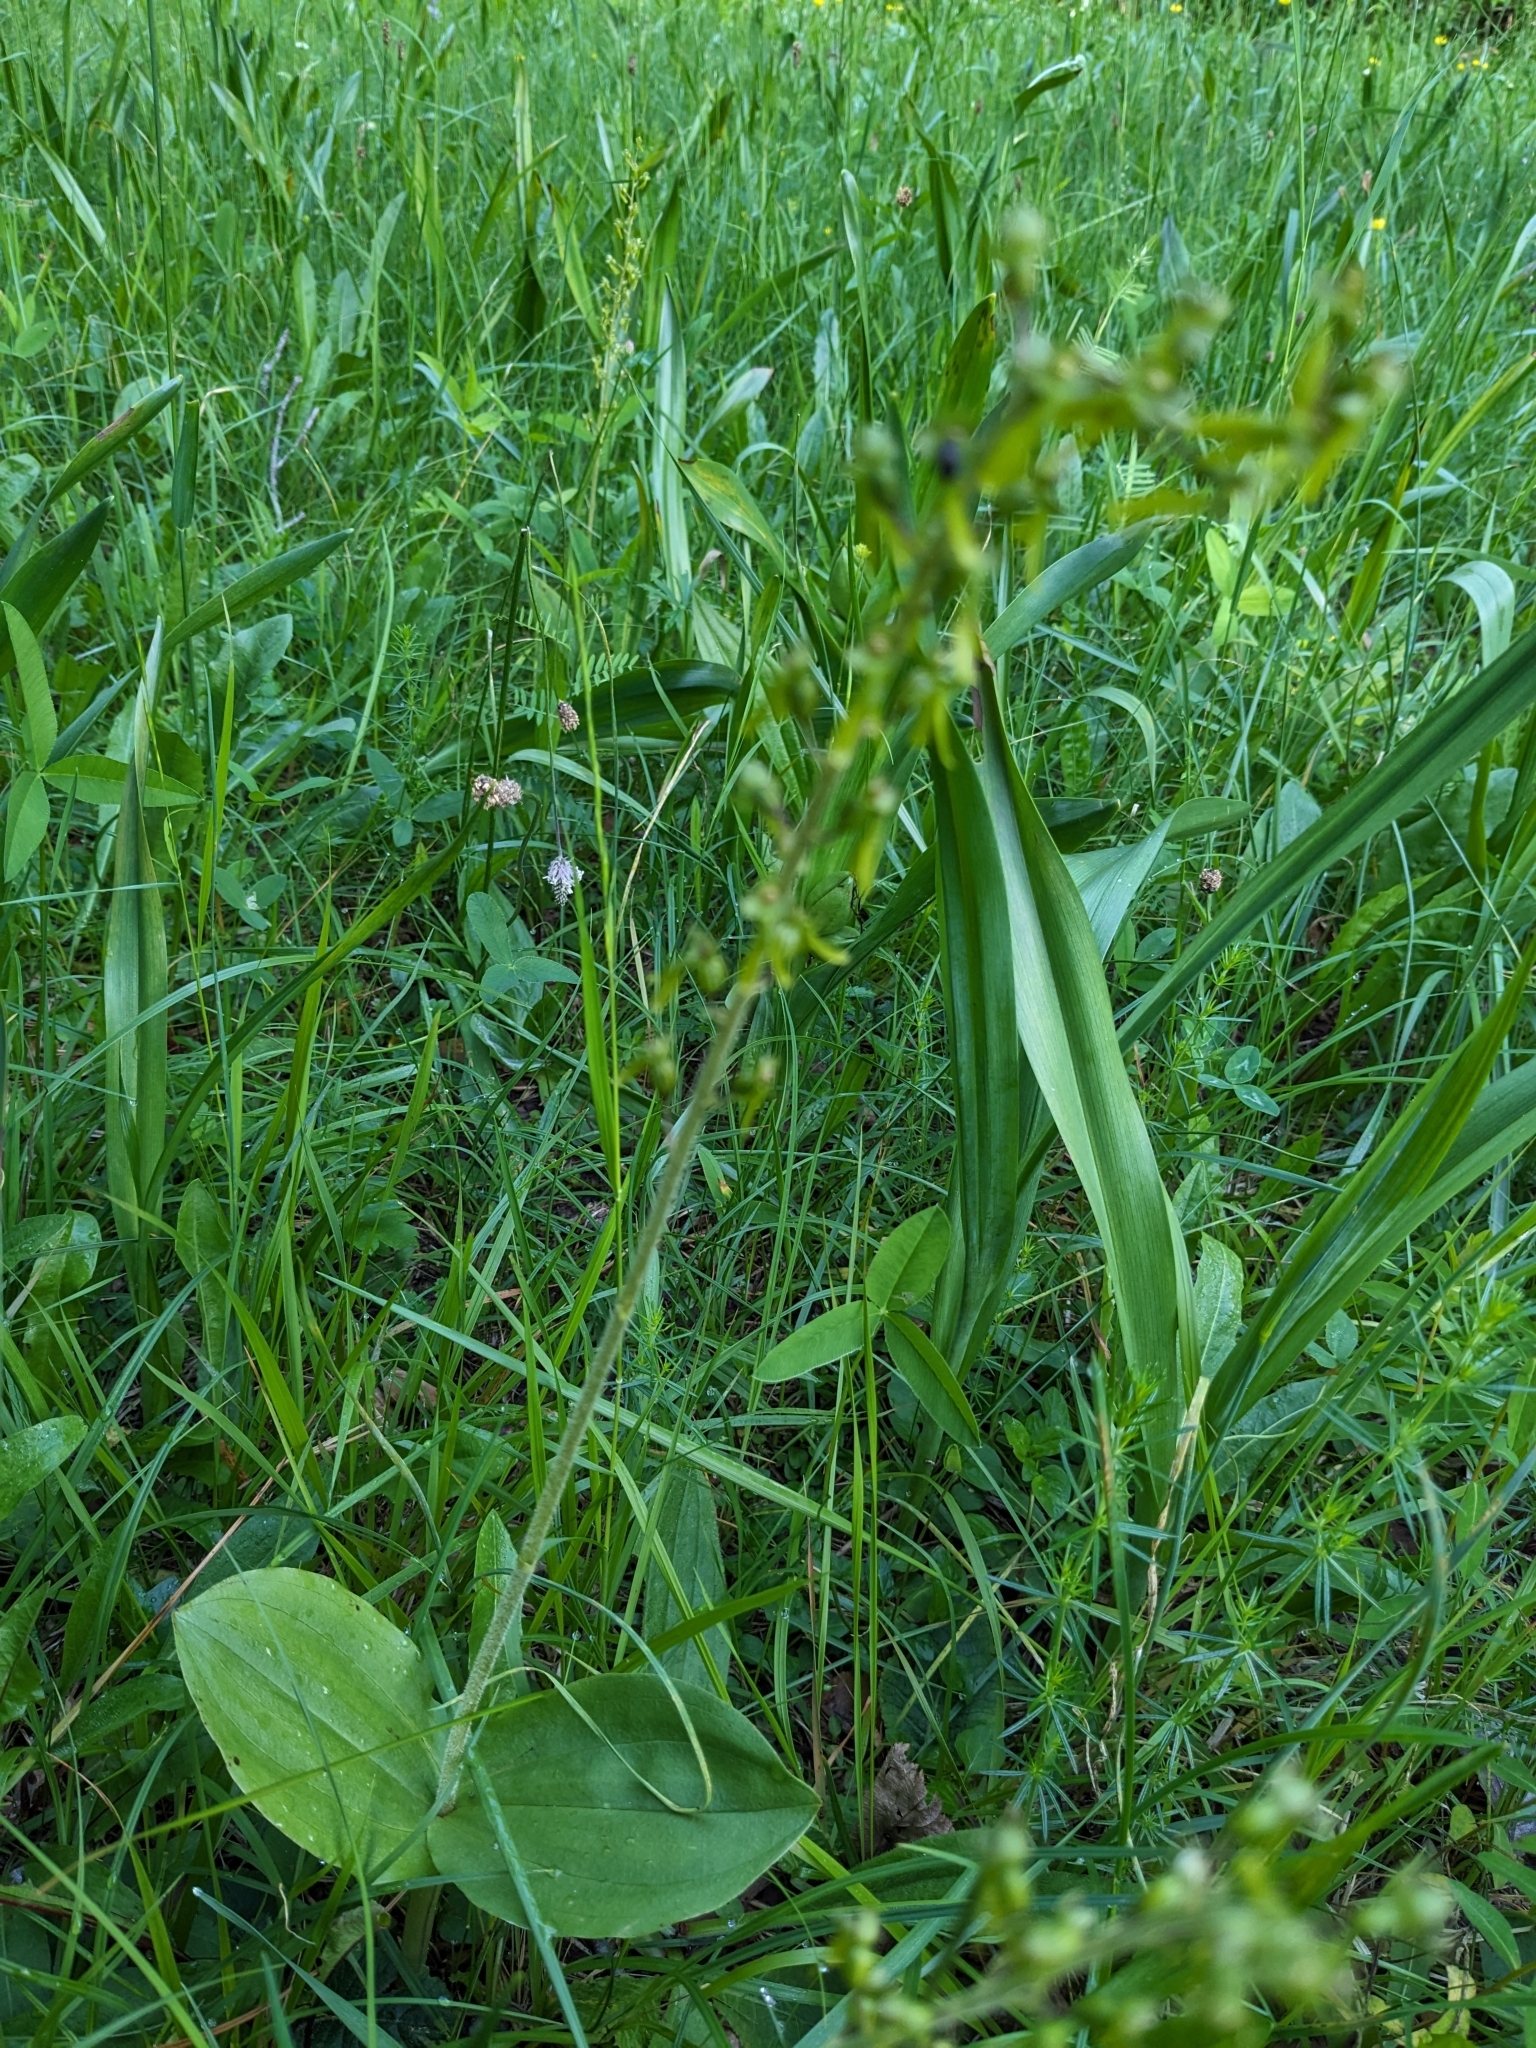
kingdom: Plantae
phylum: Tracheophyta
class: Liliopsida
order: Asparagales
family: Orchidaceae
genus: Neottia
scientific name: Neottia ovata
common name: Common twayblade
